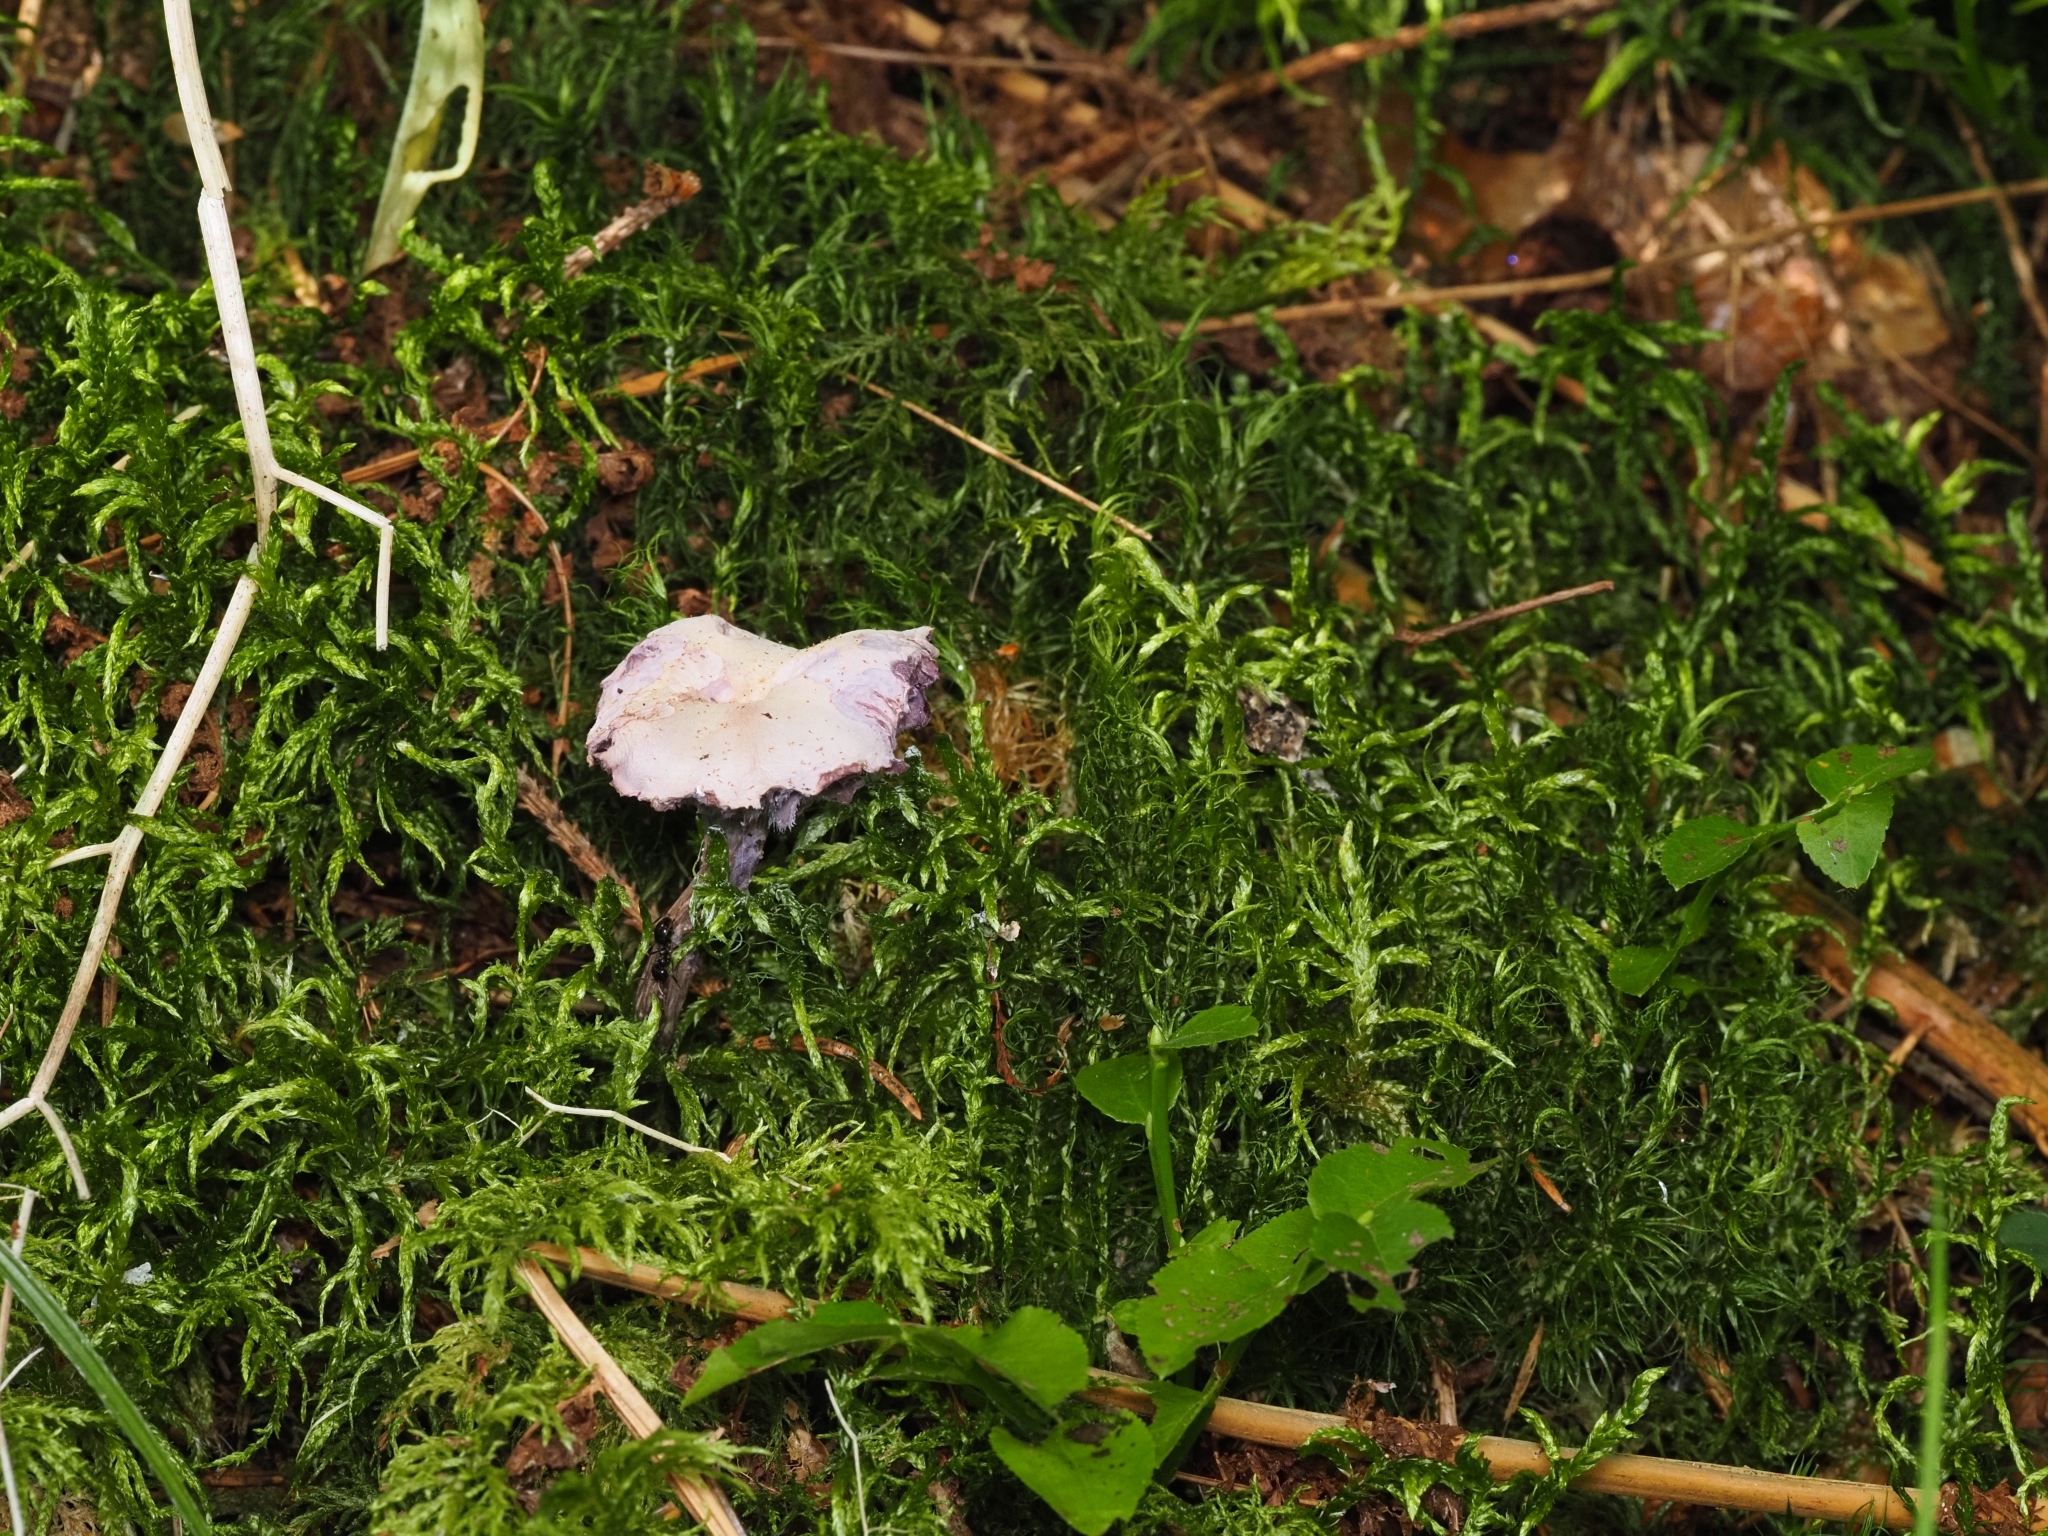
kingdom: Fungi
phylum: Basidiomycota
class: Agaricomycetes
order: Agaricales
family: Hydnangiaceae
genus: Laccaria
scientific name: Laccaria amethystina
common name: Amethyst deceiver
